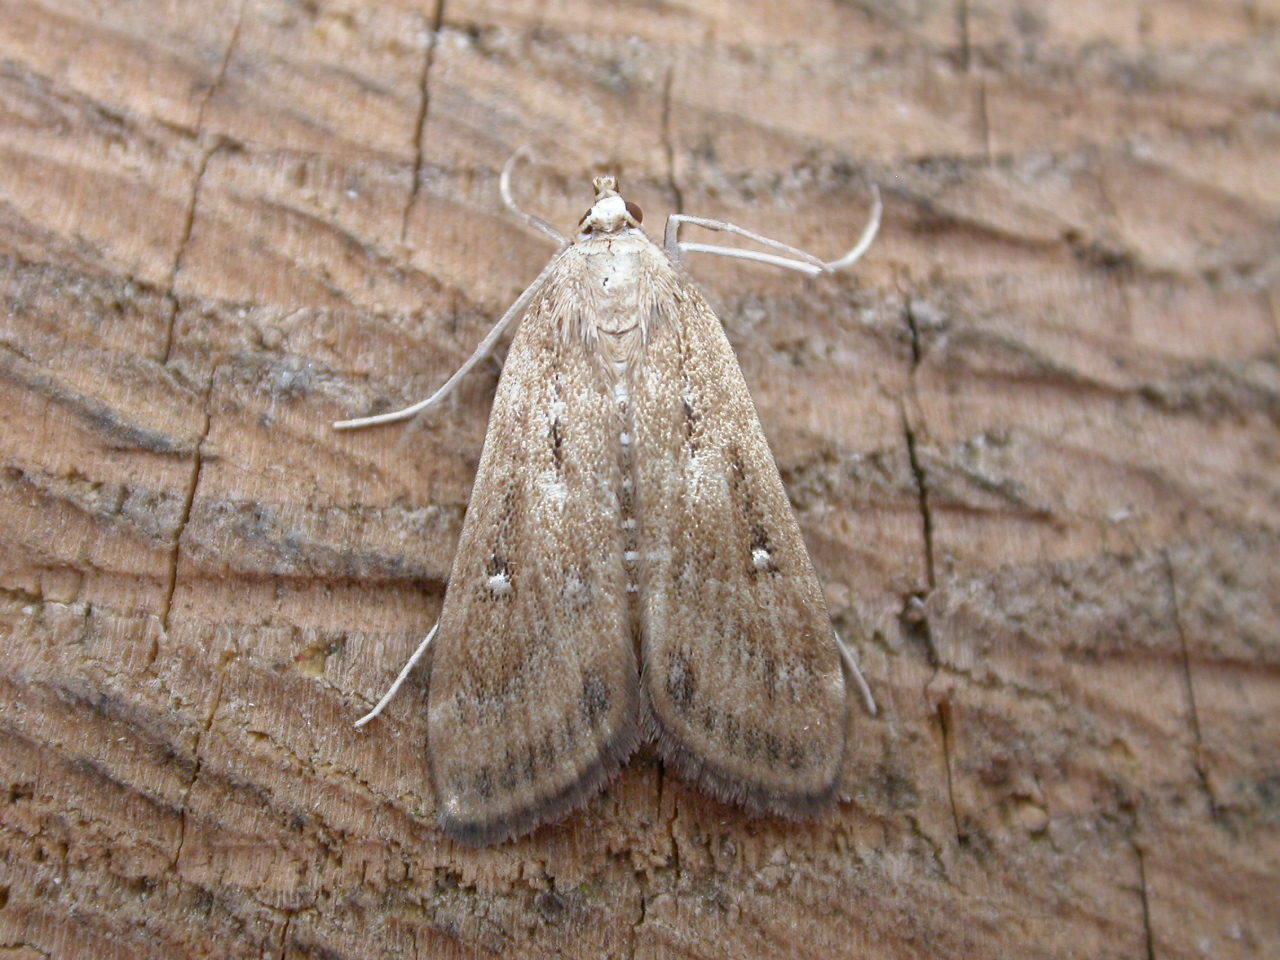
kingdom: Animalia
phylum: Arthropoda
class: Insecta
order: Lepidoptera
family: Crambidae
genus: Parapoynx
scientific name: Parapoynx stratiotata
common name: Ringed china-mark
